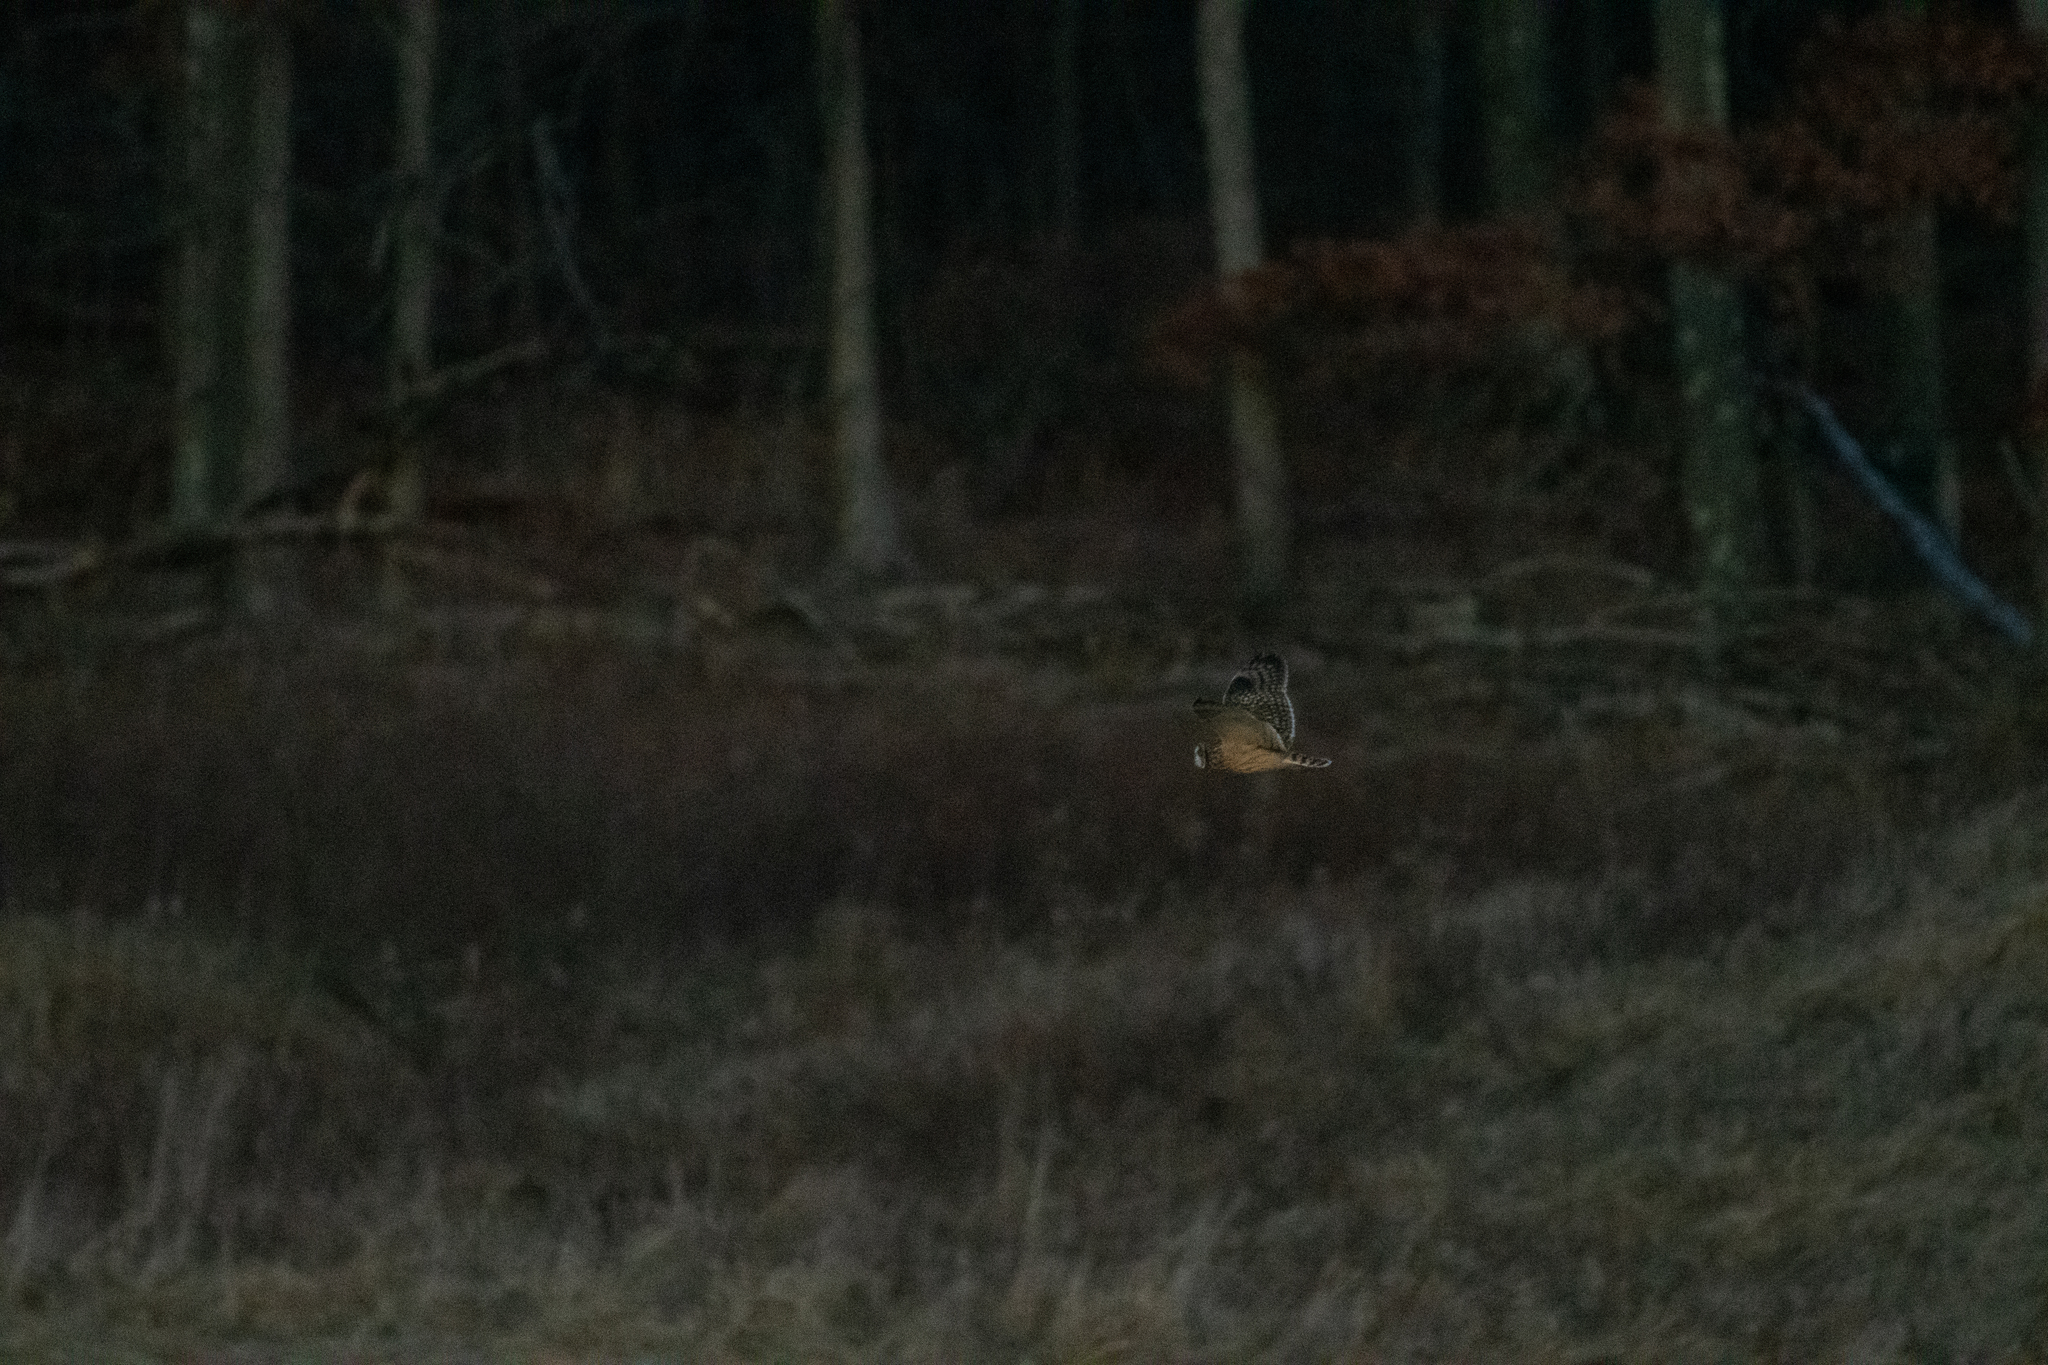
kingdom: Animalia
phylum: Chordata
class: Aves
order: Strigiformes
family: Strigidae
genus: Asio
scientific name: Asio flammeus
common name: Short-eared owl
